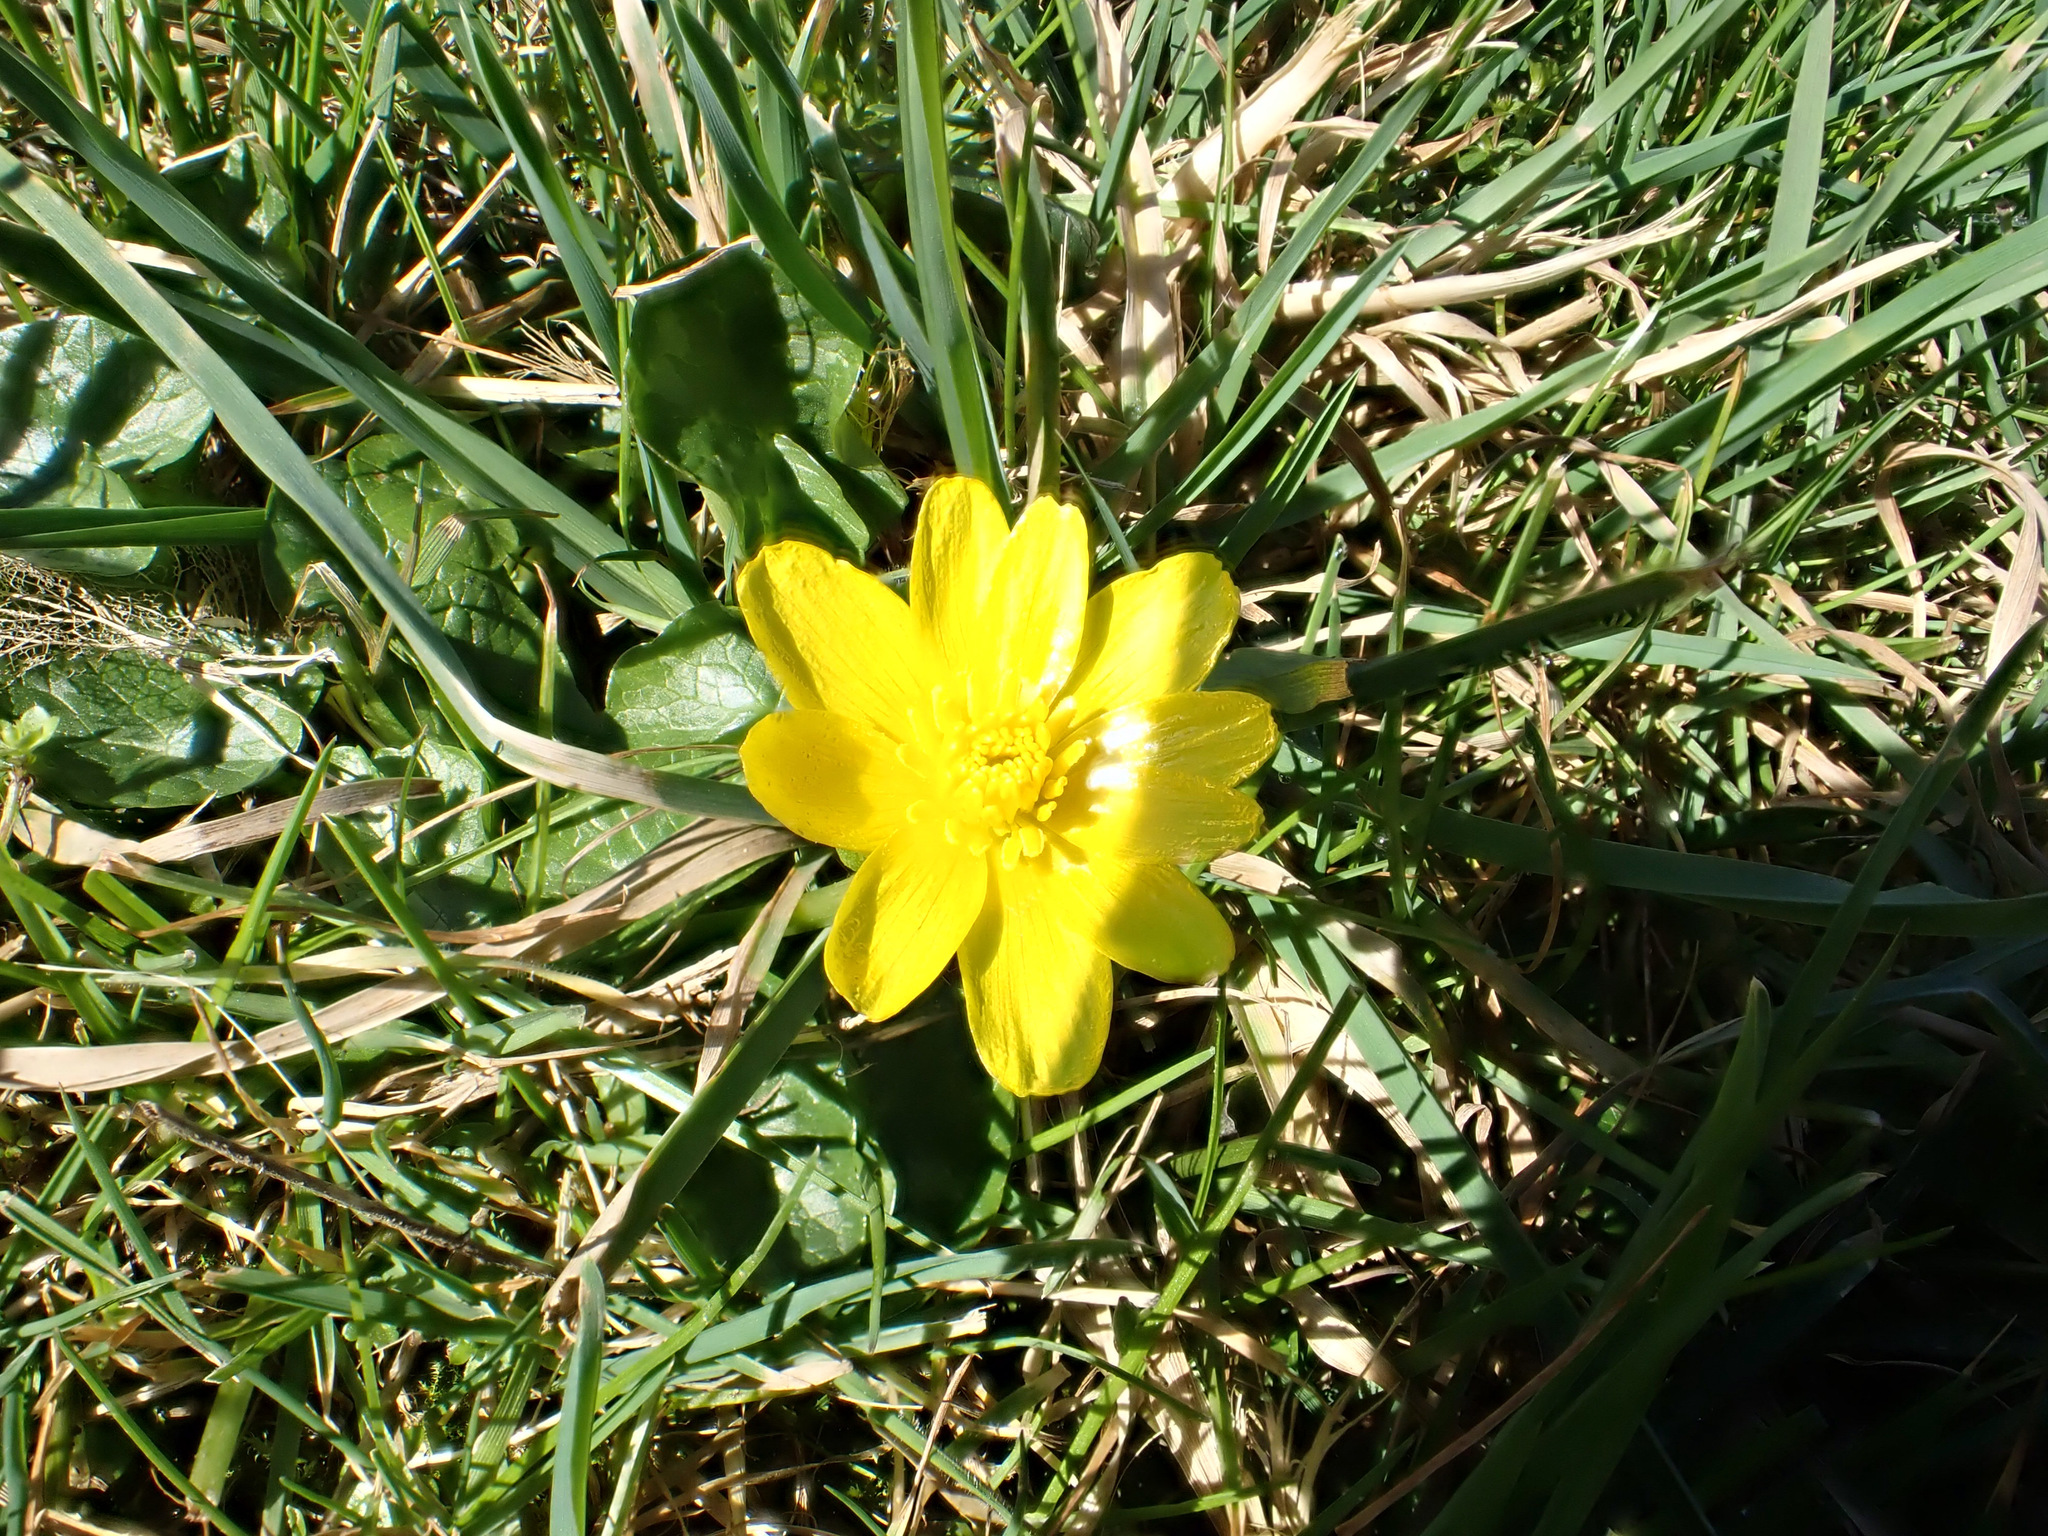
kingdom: Plantae
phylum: Tracheophyta
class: Magnoliopsida
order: Ranunculales
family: Ranunculaceae
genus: Ficaria
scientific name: Ficaria verna
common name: Lesser celandine
